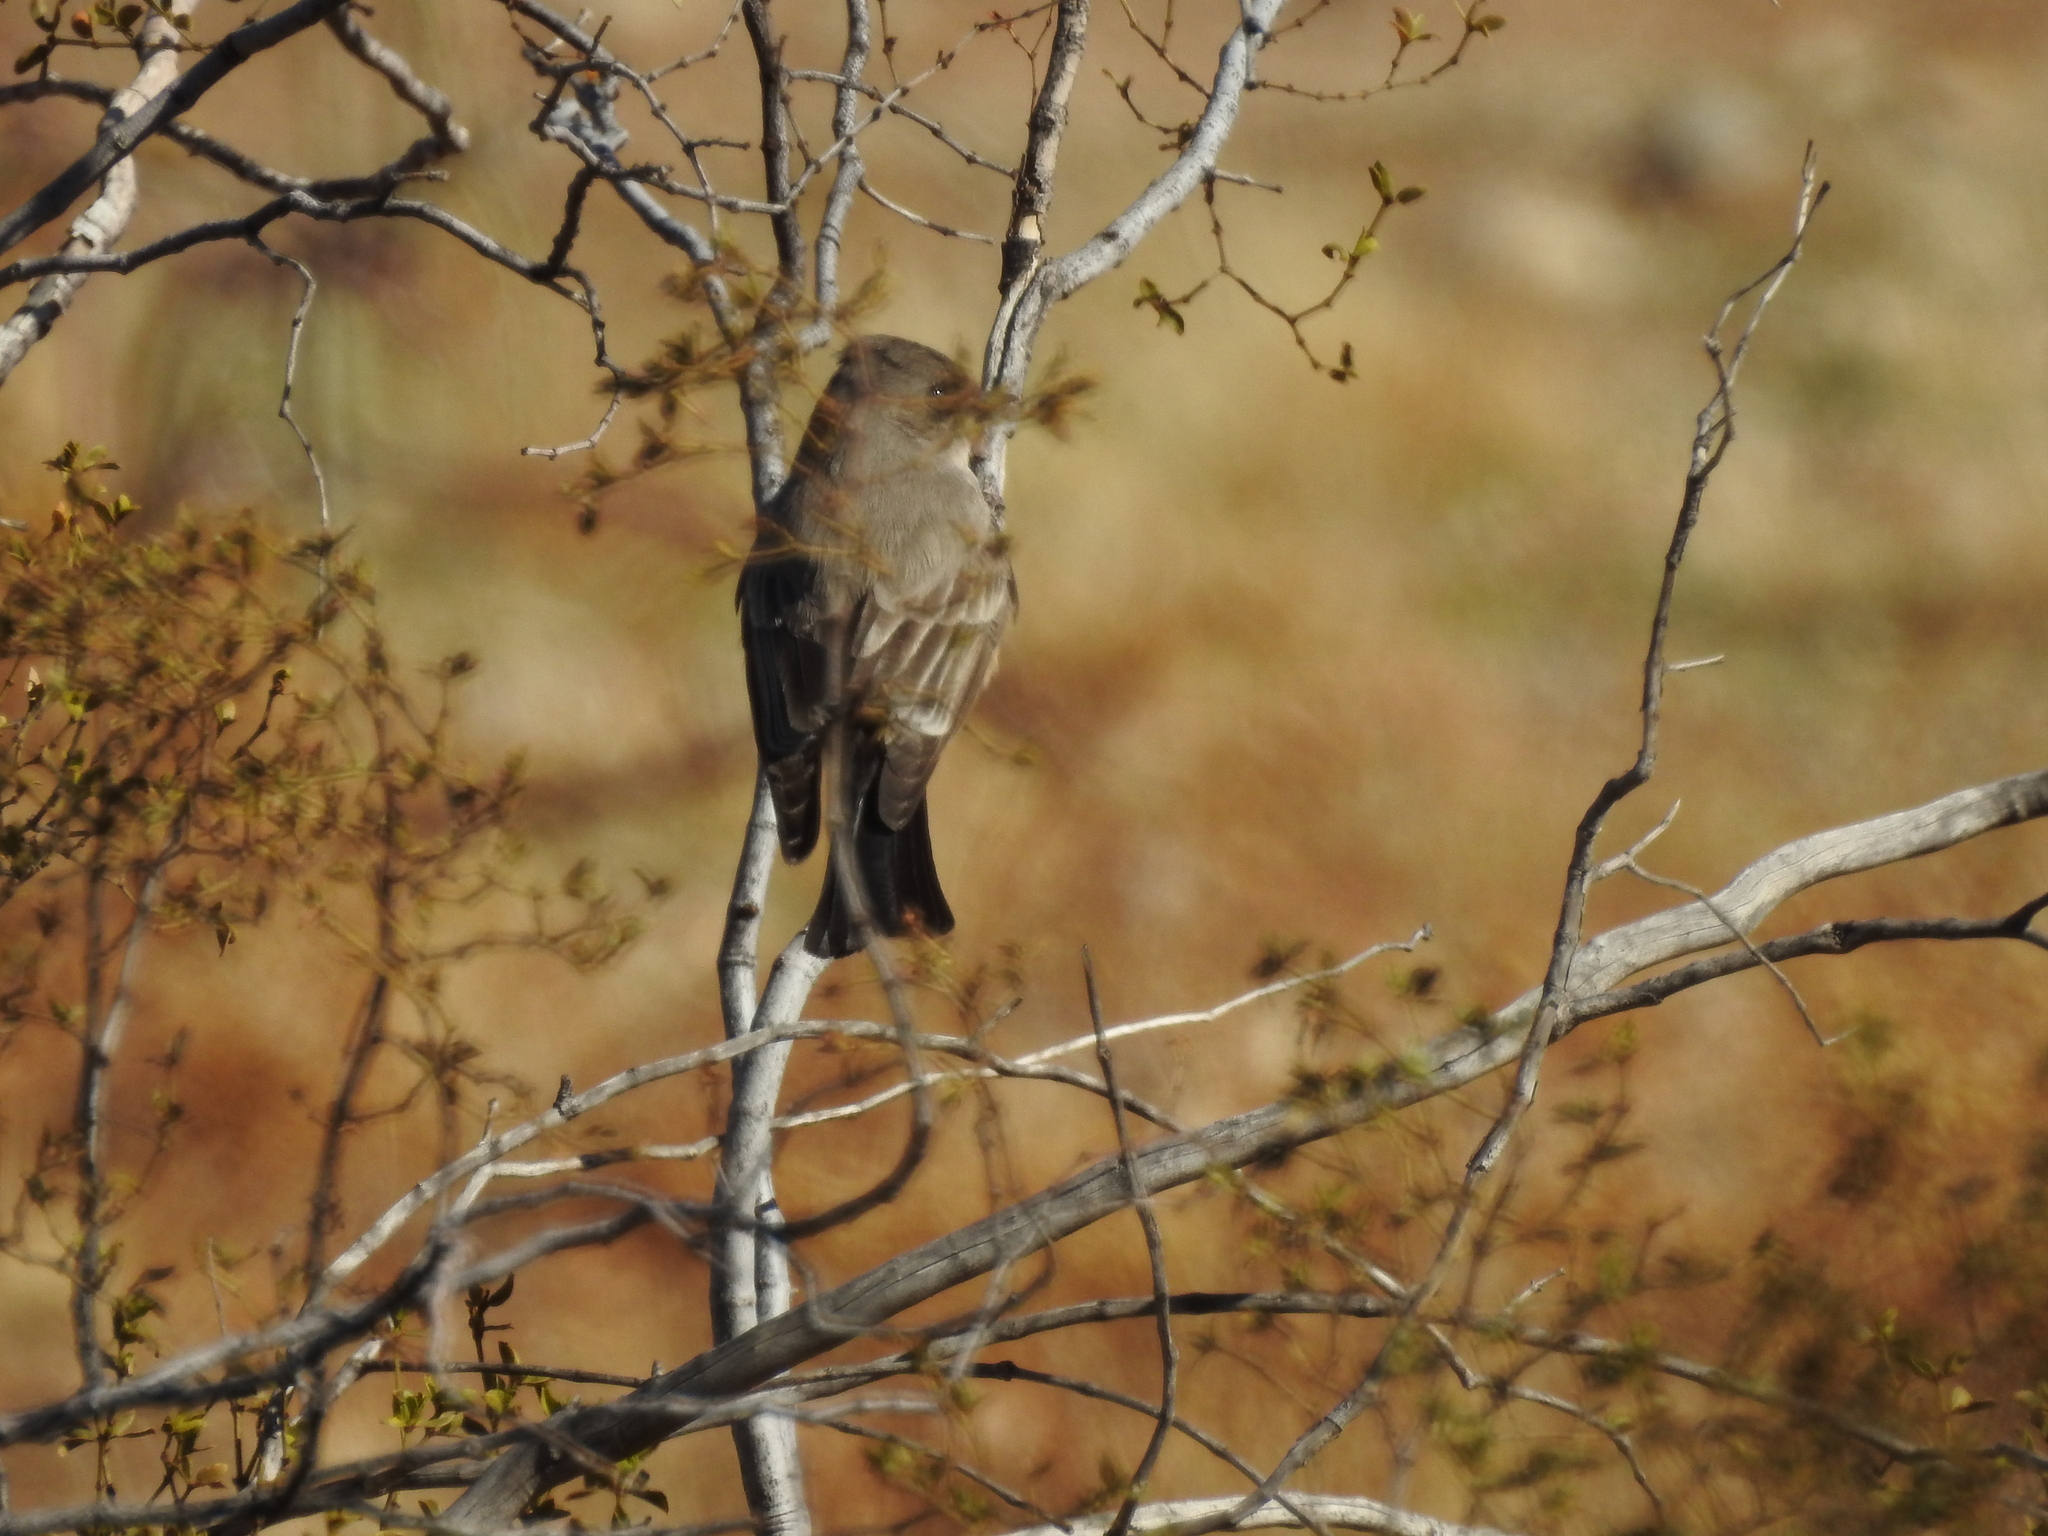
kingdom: Animalia
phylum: Chordata
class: Aves
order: Passeriformes
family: Tyrannidae
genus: Sayornis
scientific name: Sayornis saya
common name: Say's phoebe
